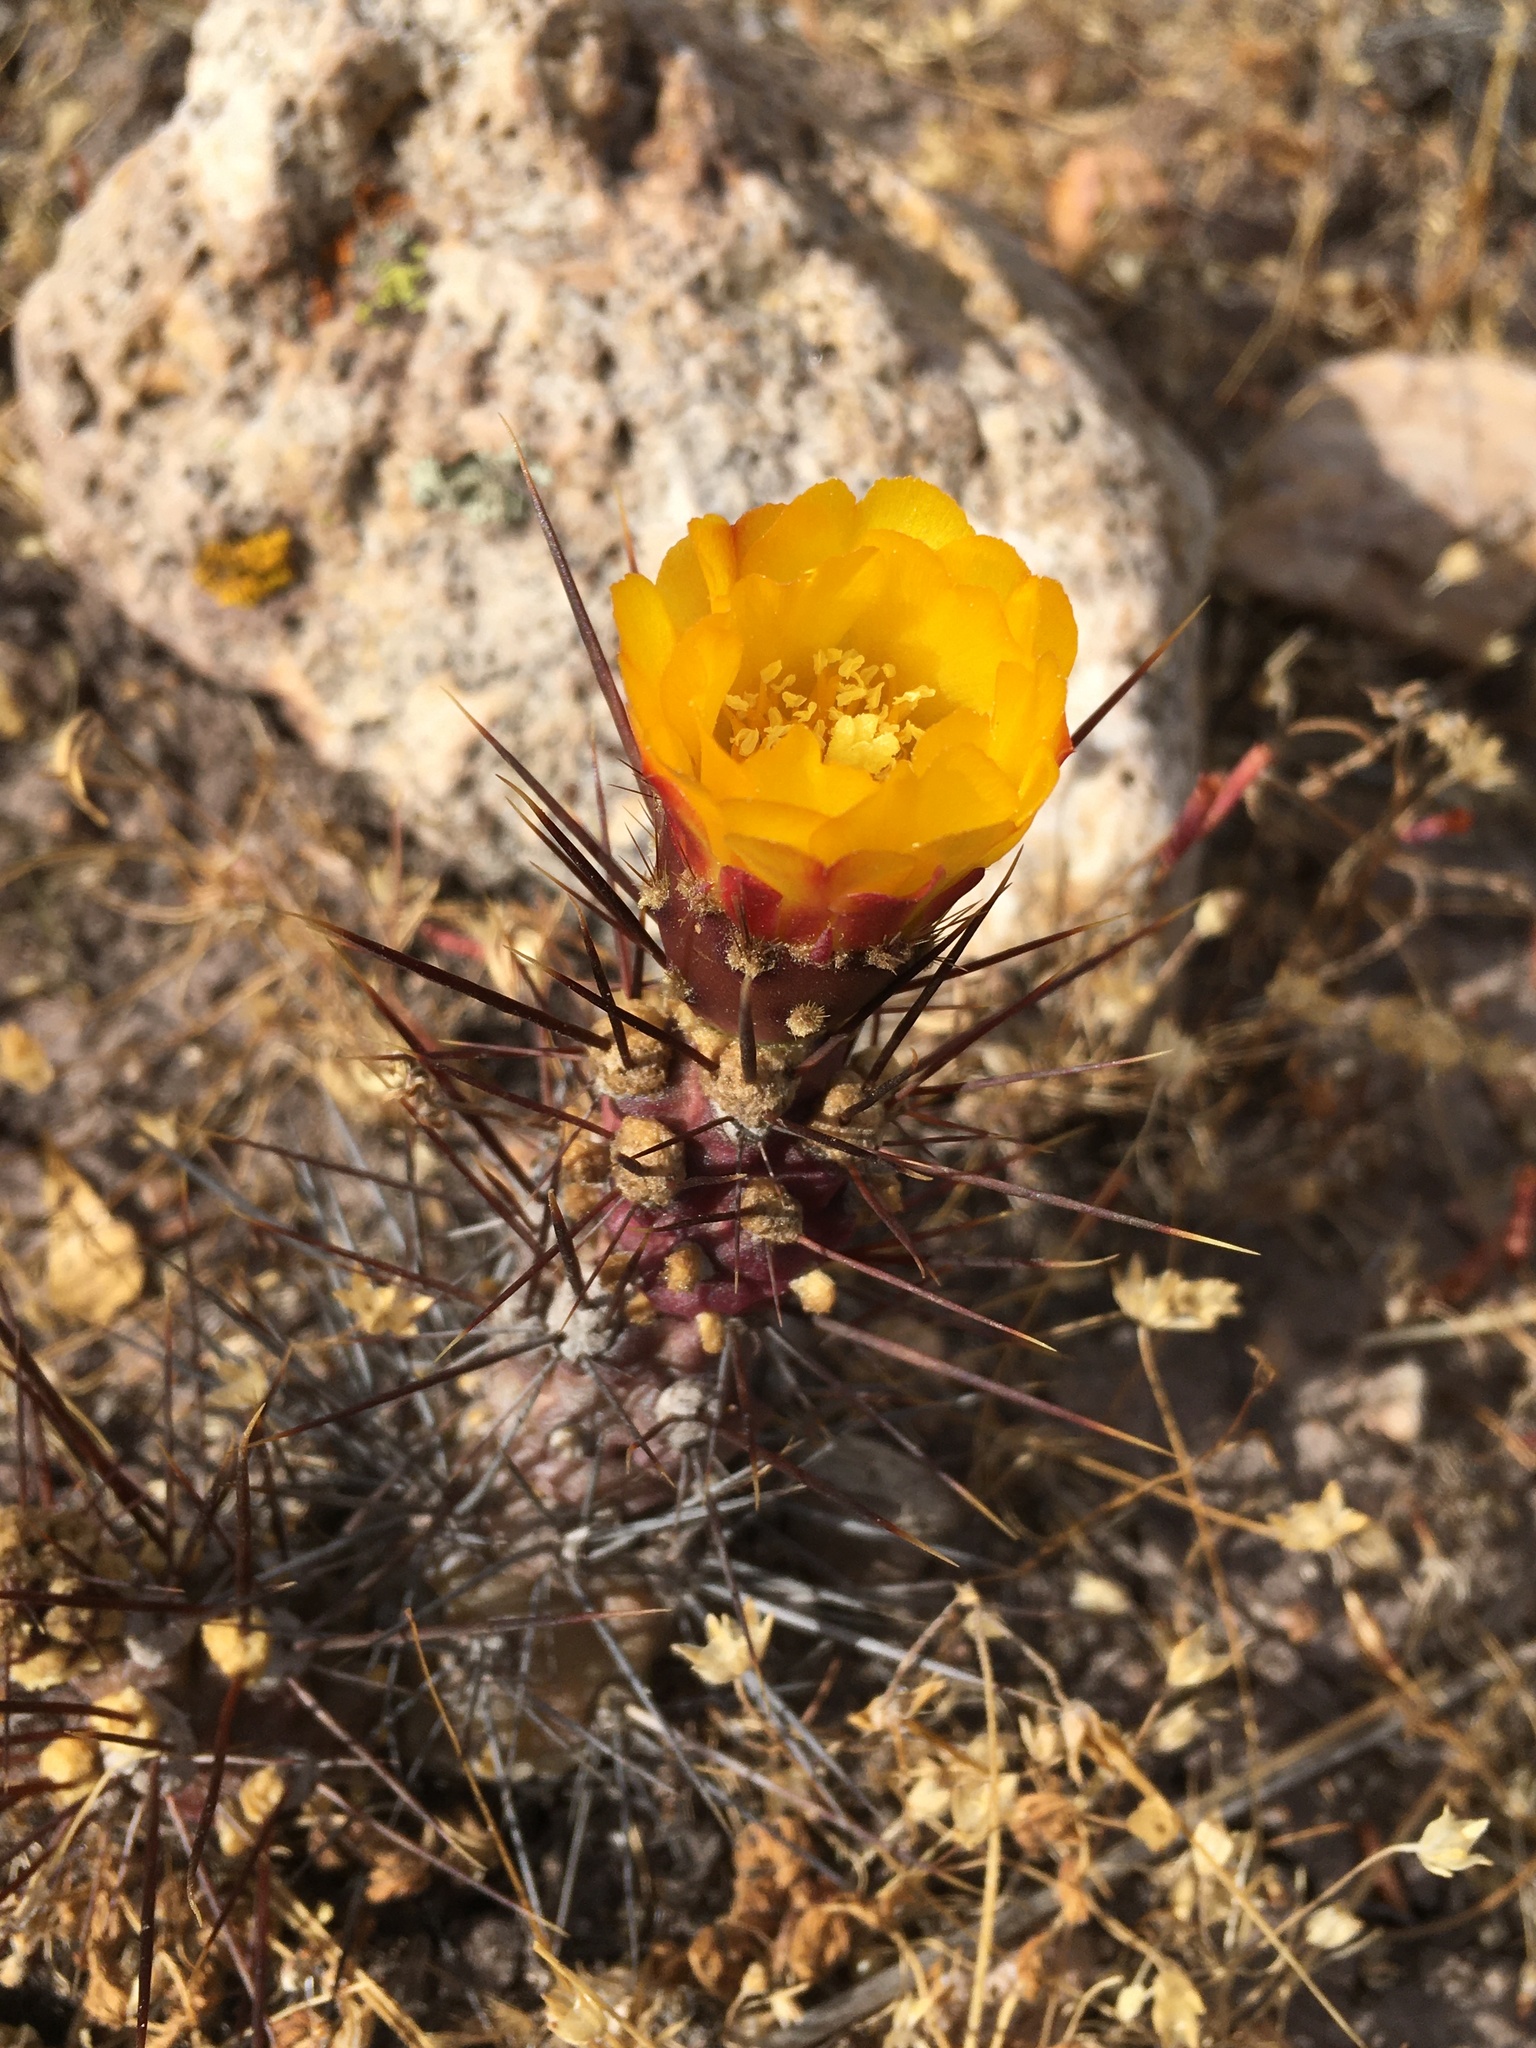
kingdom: Plantae
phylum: Tracheophyta
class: Magnoliopsida
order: Caryophyllales
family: Cactaceae
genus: Cumulopuntia
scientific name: Cumulopuntia leucophaea
